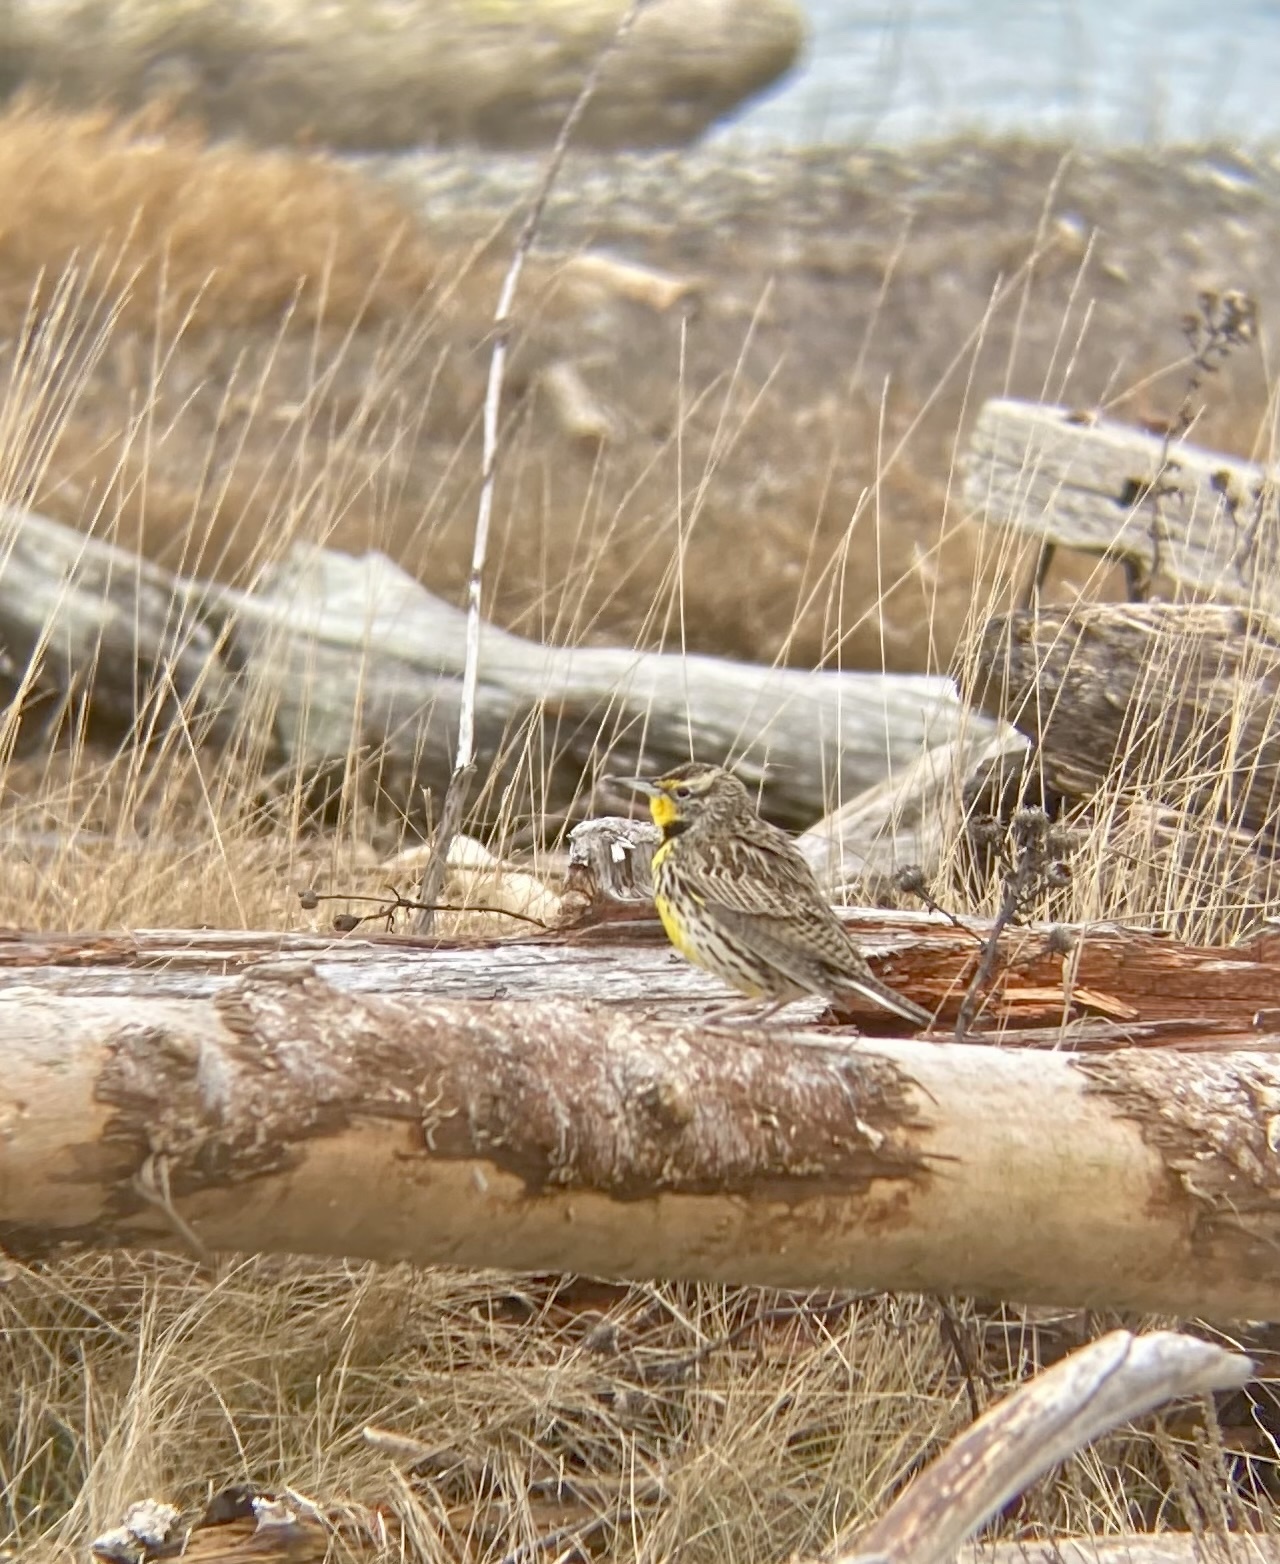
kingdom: Animalia
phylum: Chordata
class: Aves
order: Passeriformes
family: Icteridae
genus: Sturnella
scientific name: Sturnella neglecta
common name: Western meadowlark
